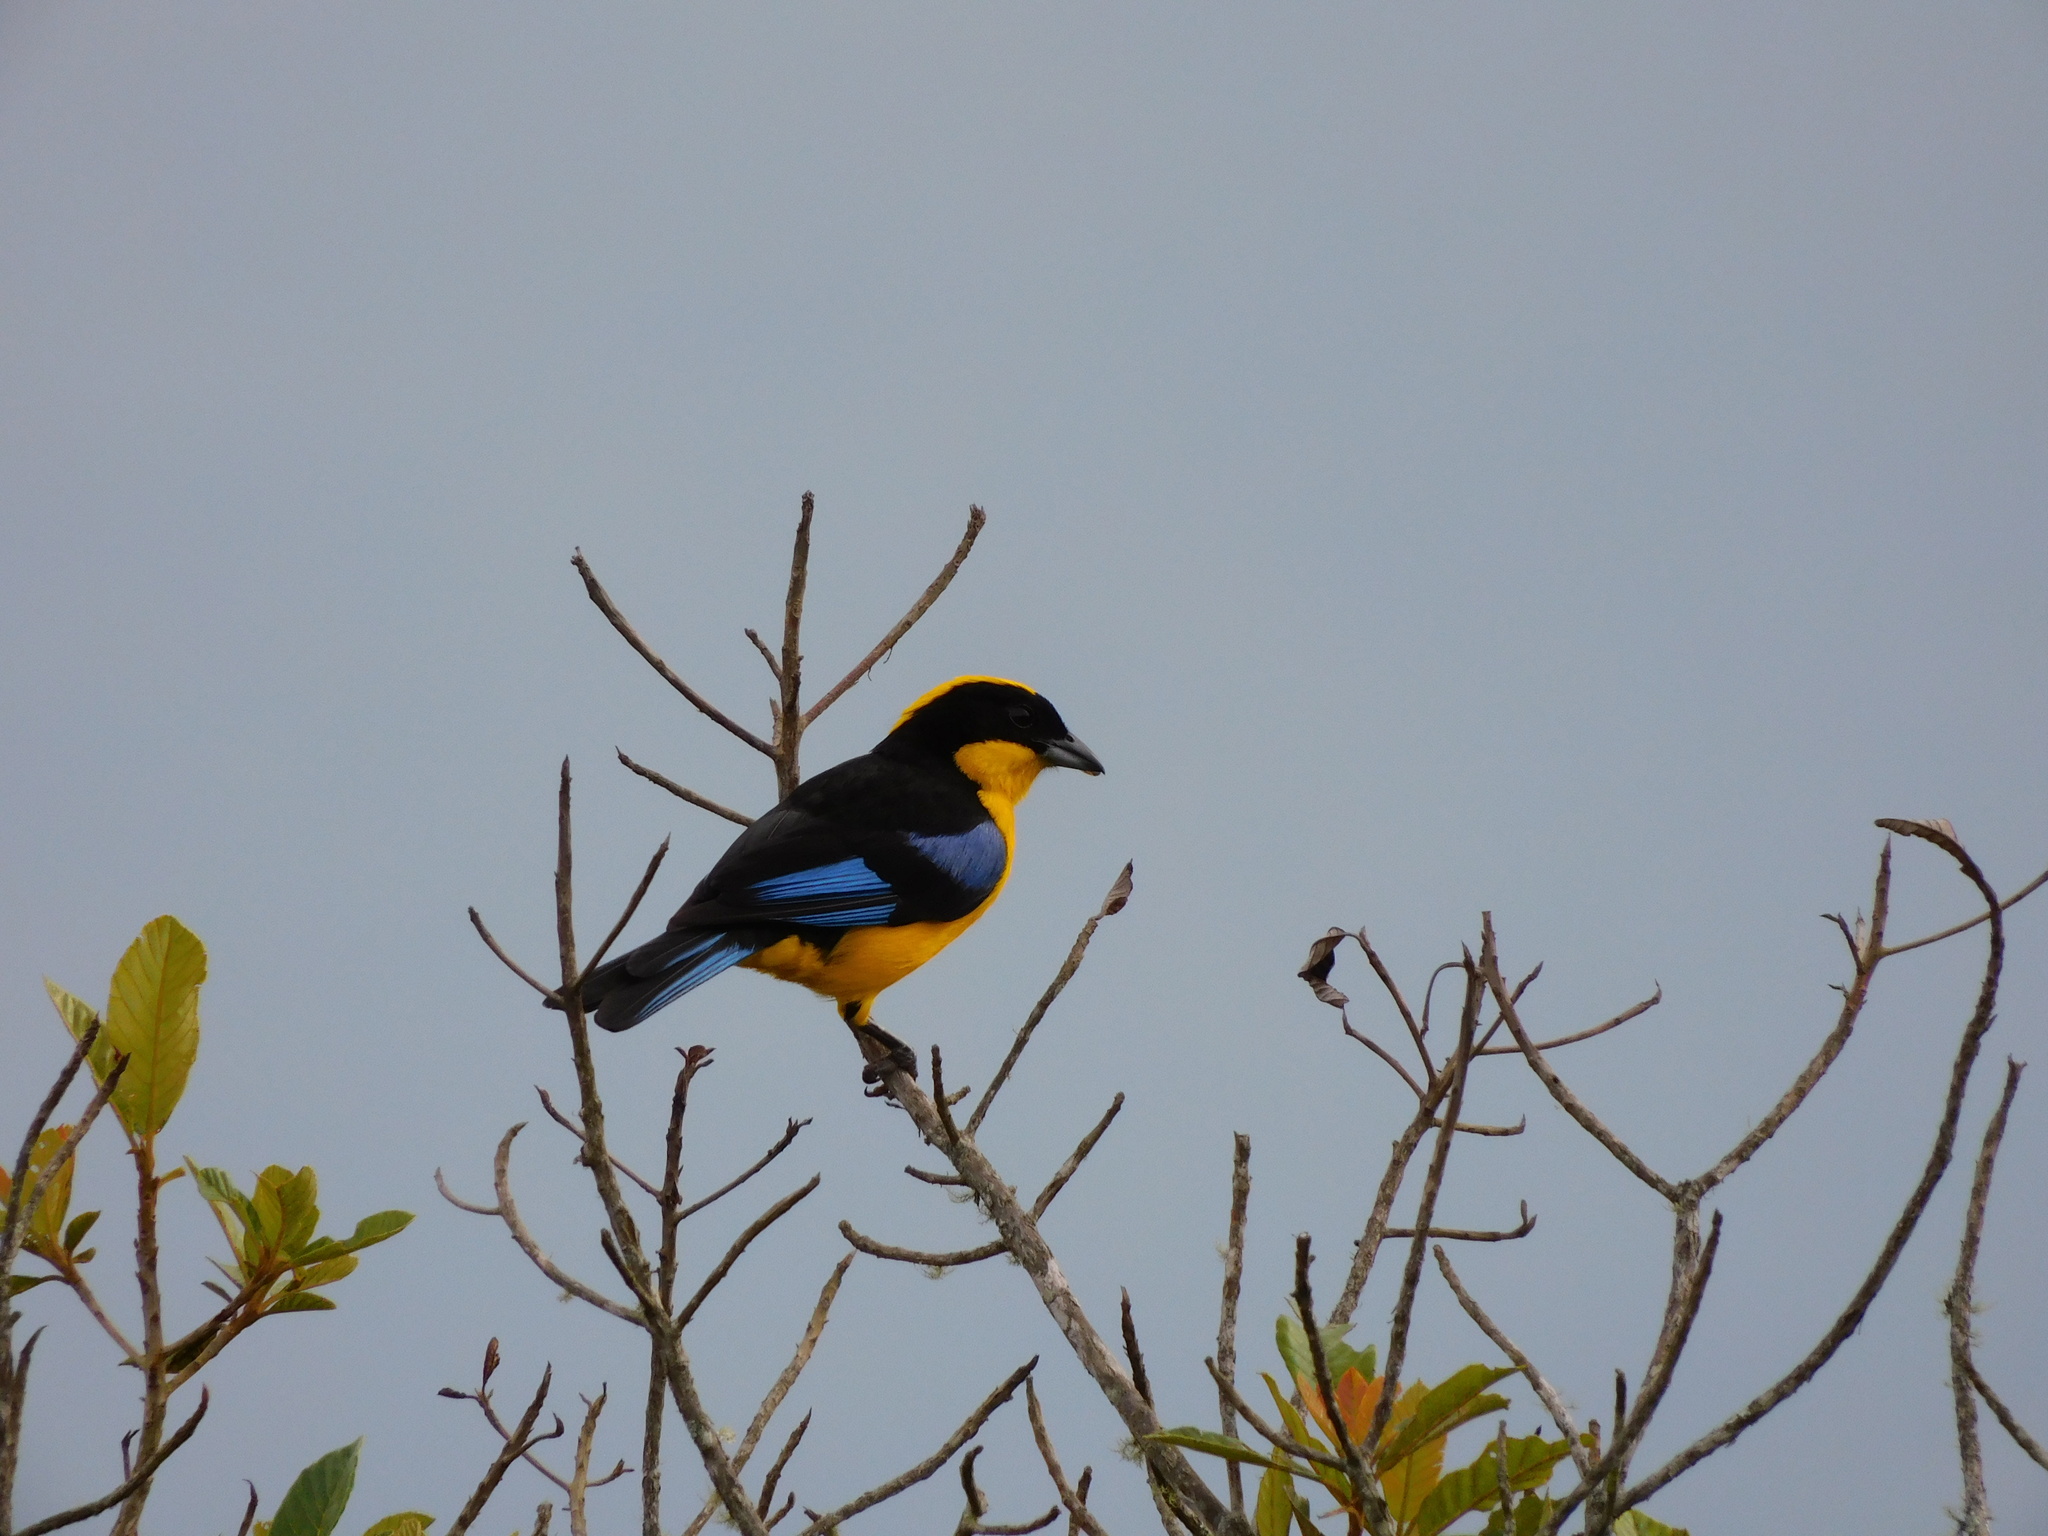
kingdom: Animalia
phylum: Chordata
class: Aves
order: Passeriformes
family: Thraupidae
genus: Anisognathus
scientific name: Anisognathus somptuosus
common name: Blue-winged mountain-tanager
